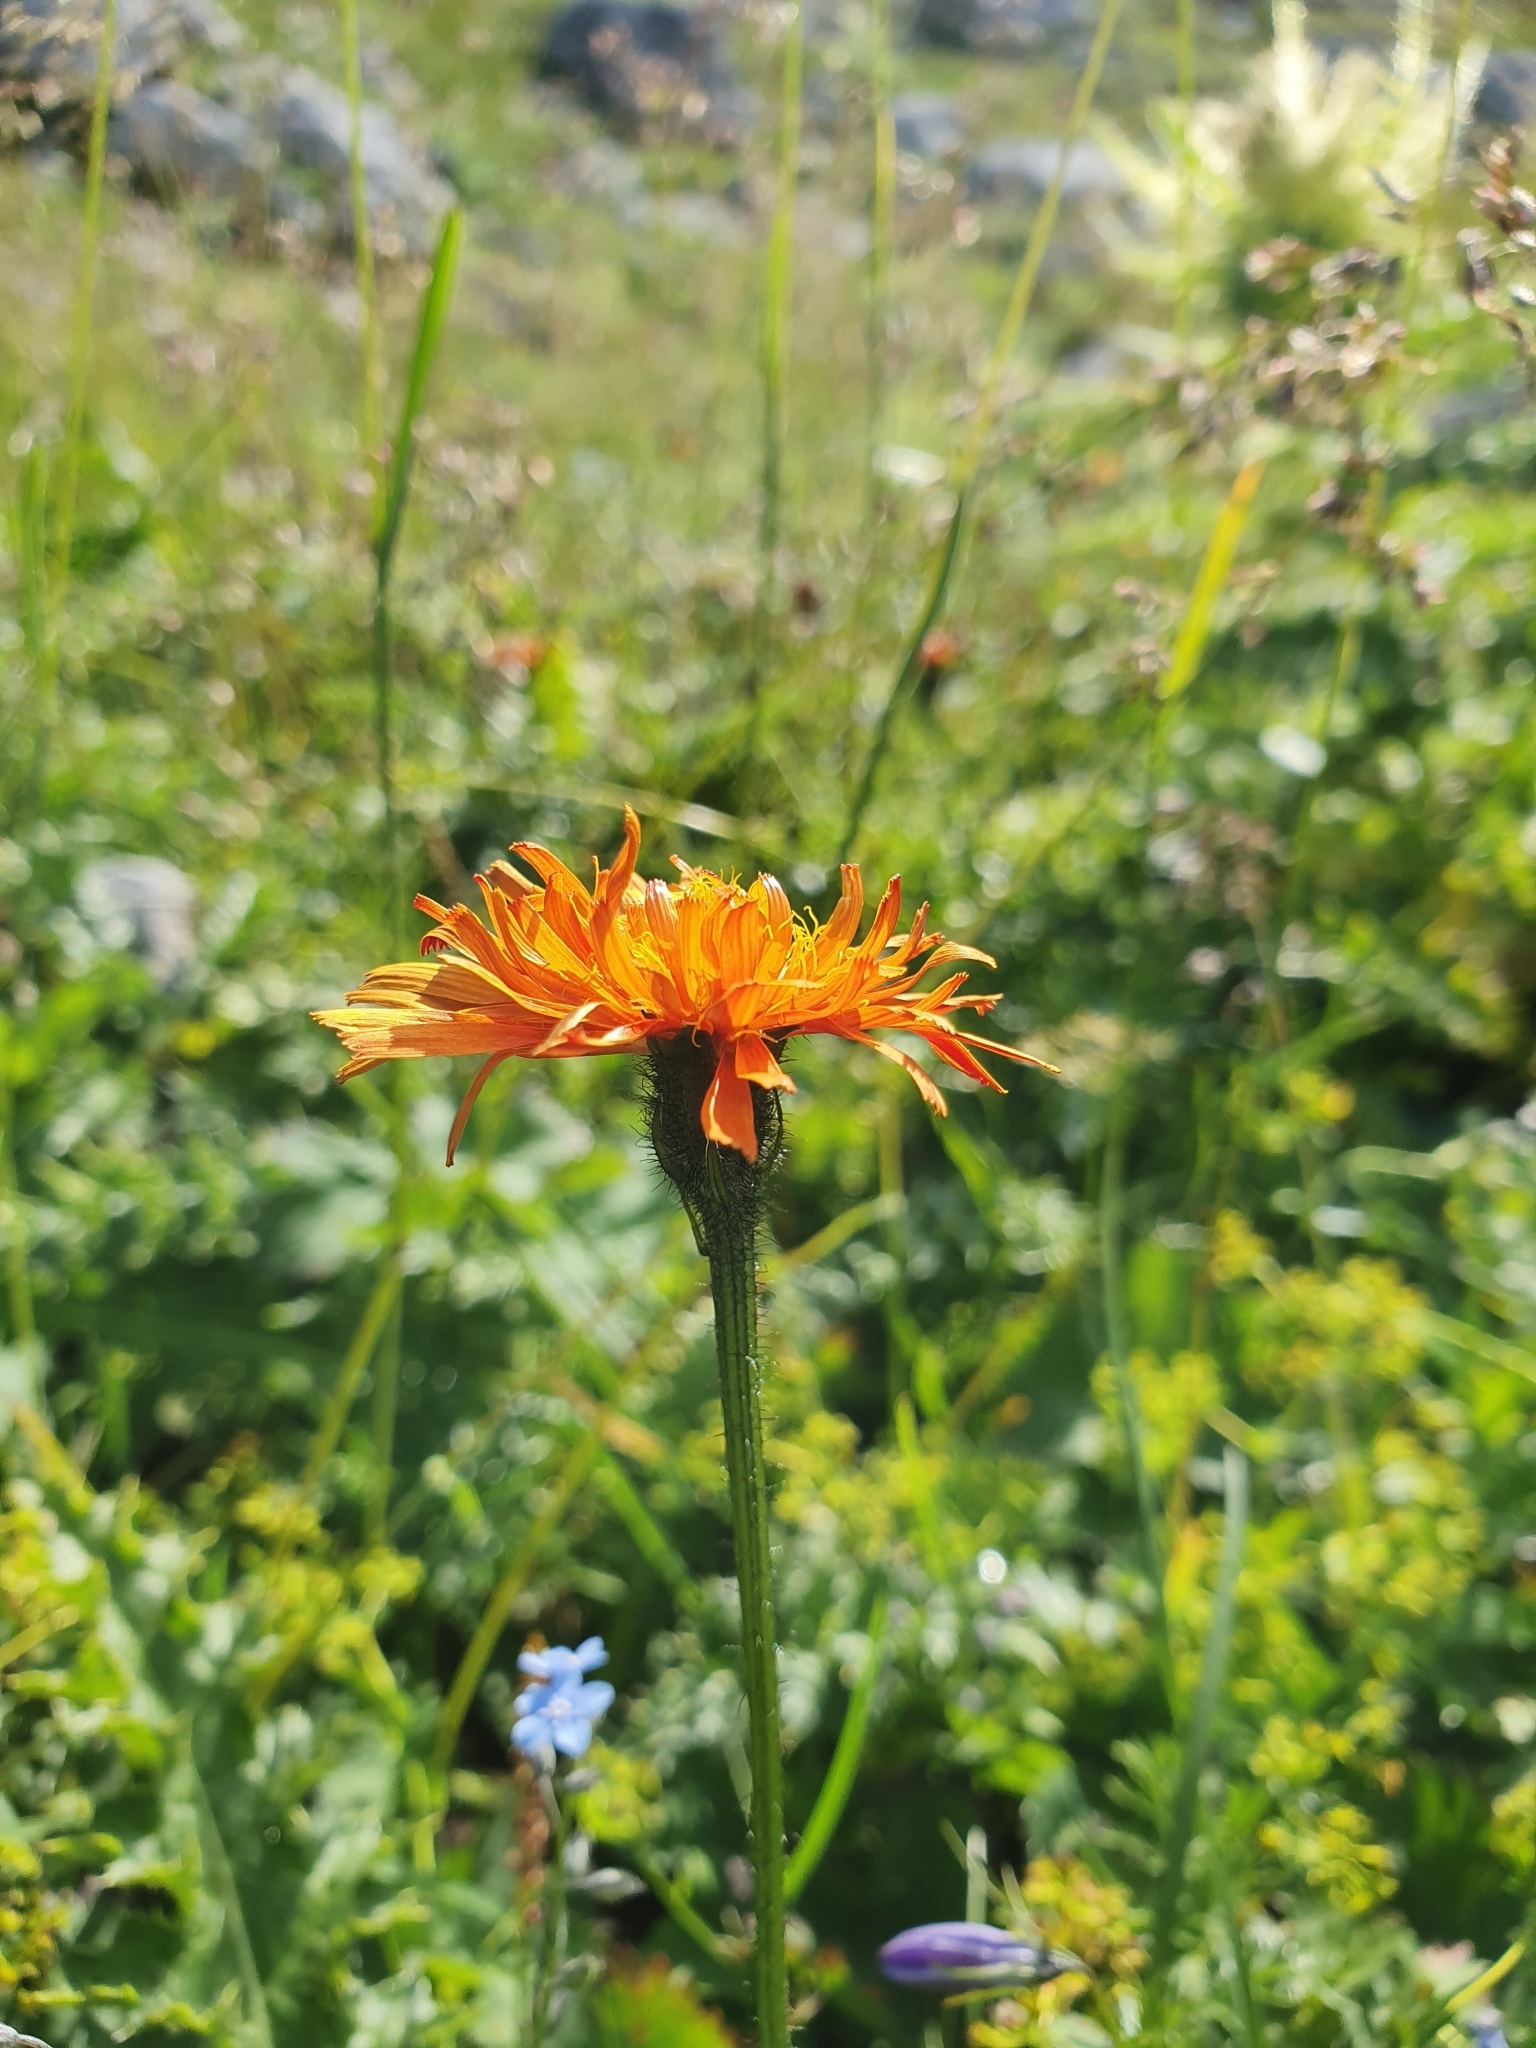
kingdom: Plantae
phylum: Tracheophyta
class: Magnoliopsida
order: Asterales
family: Asteraceae
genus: Crepis
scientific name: Crepis aurea
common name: Golden hawk's-beard
